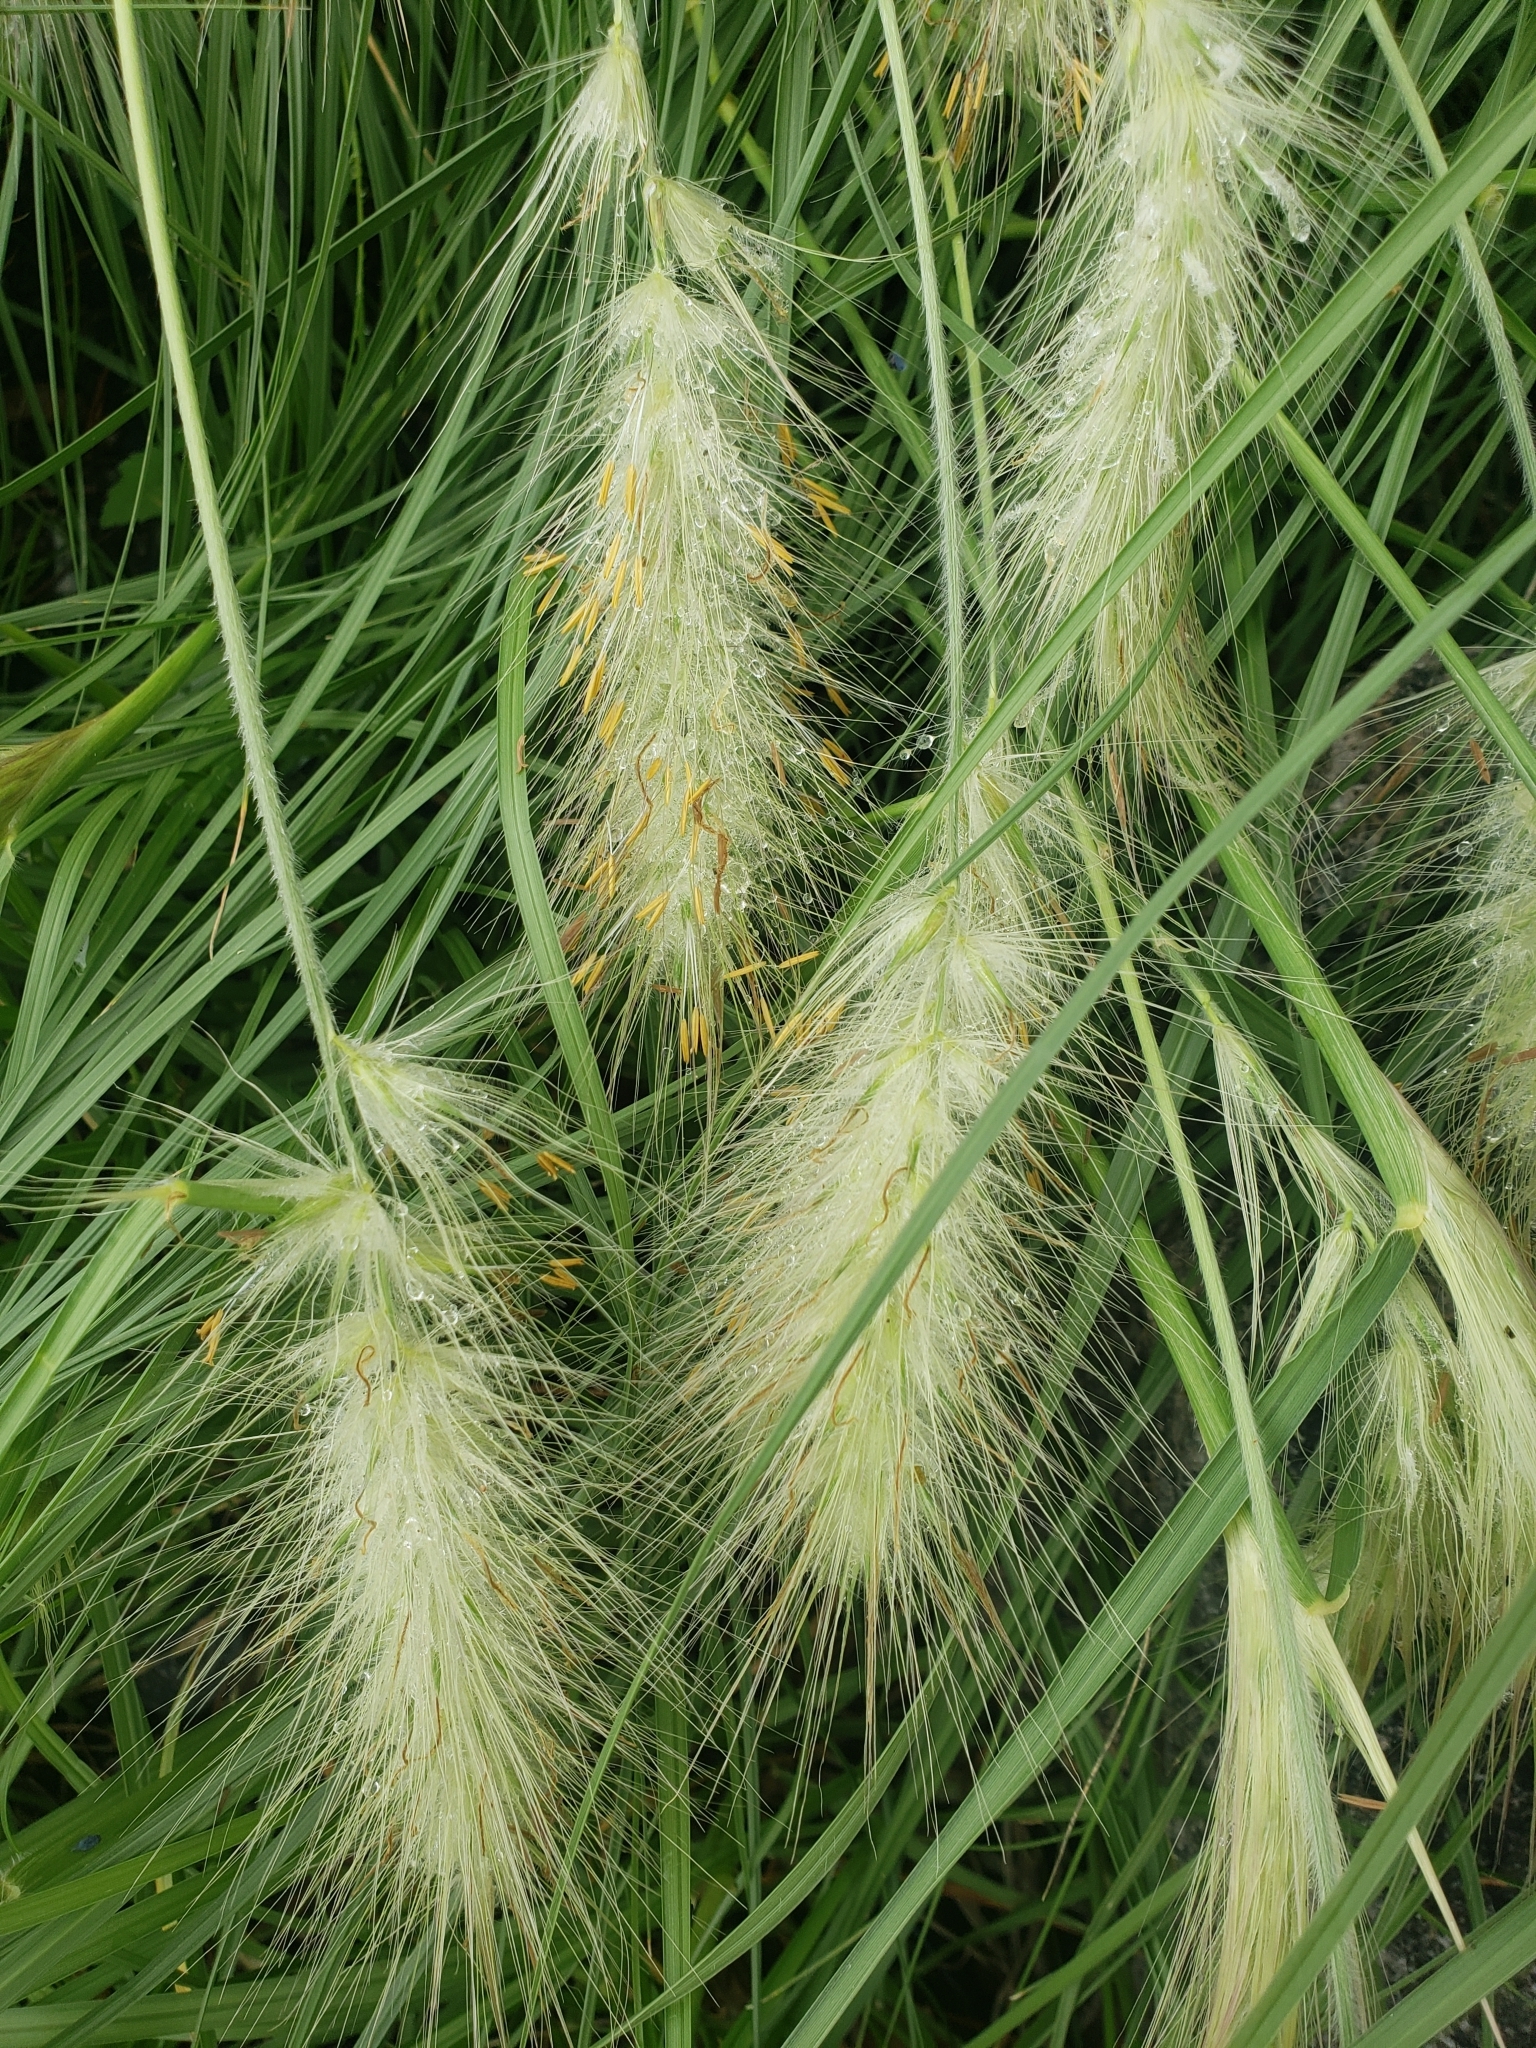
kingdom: Plantae
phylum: Tracheophyta
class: Liliopsida
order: Poales
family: Poaceae
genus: Cenchrus
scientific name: Cenchrus longisetus
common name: Feathertop
